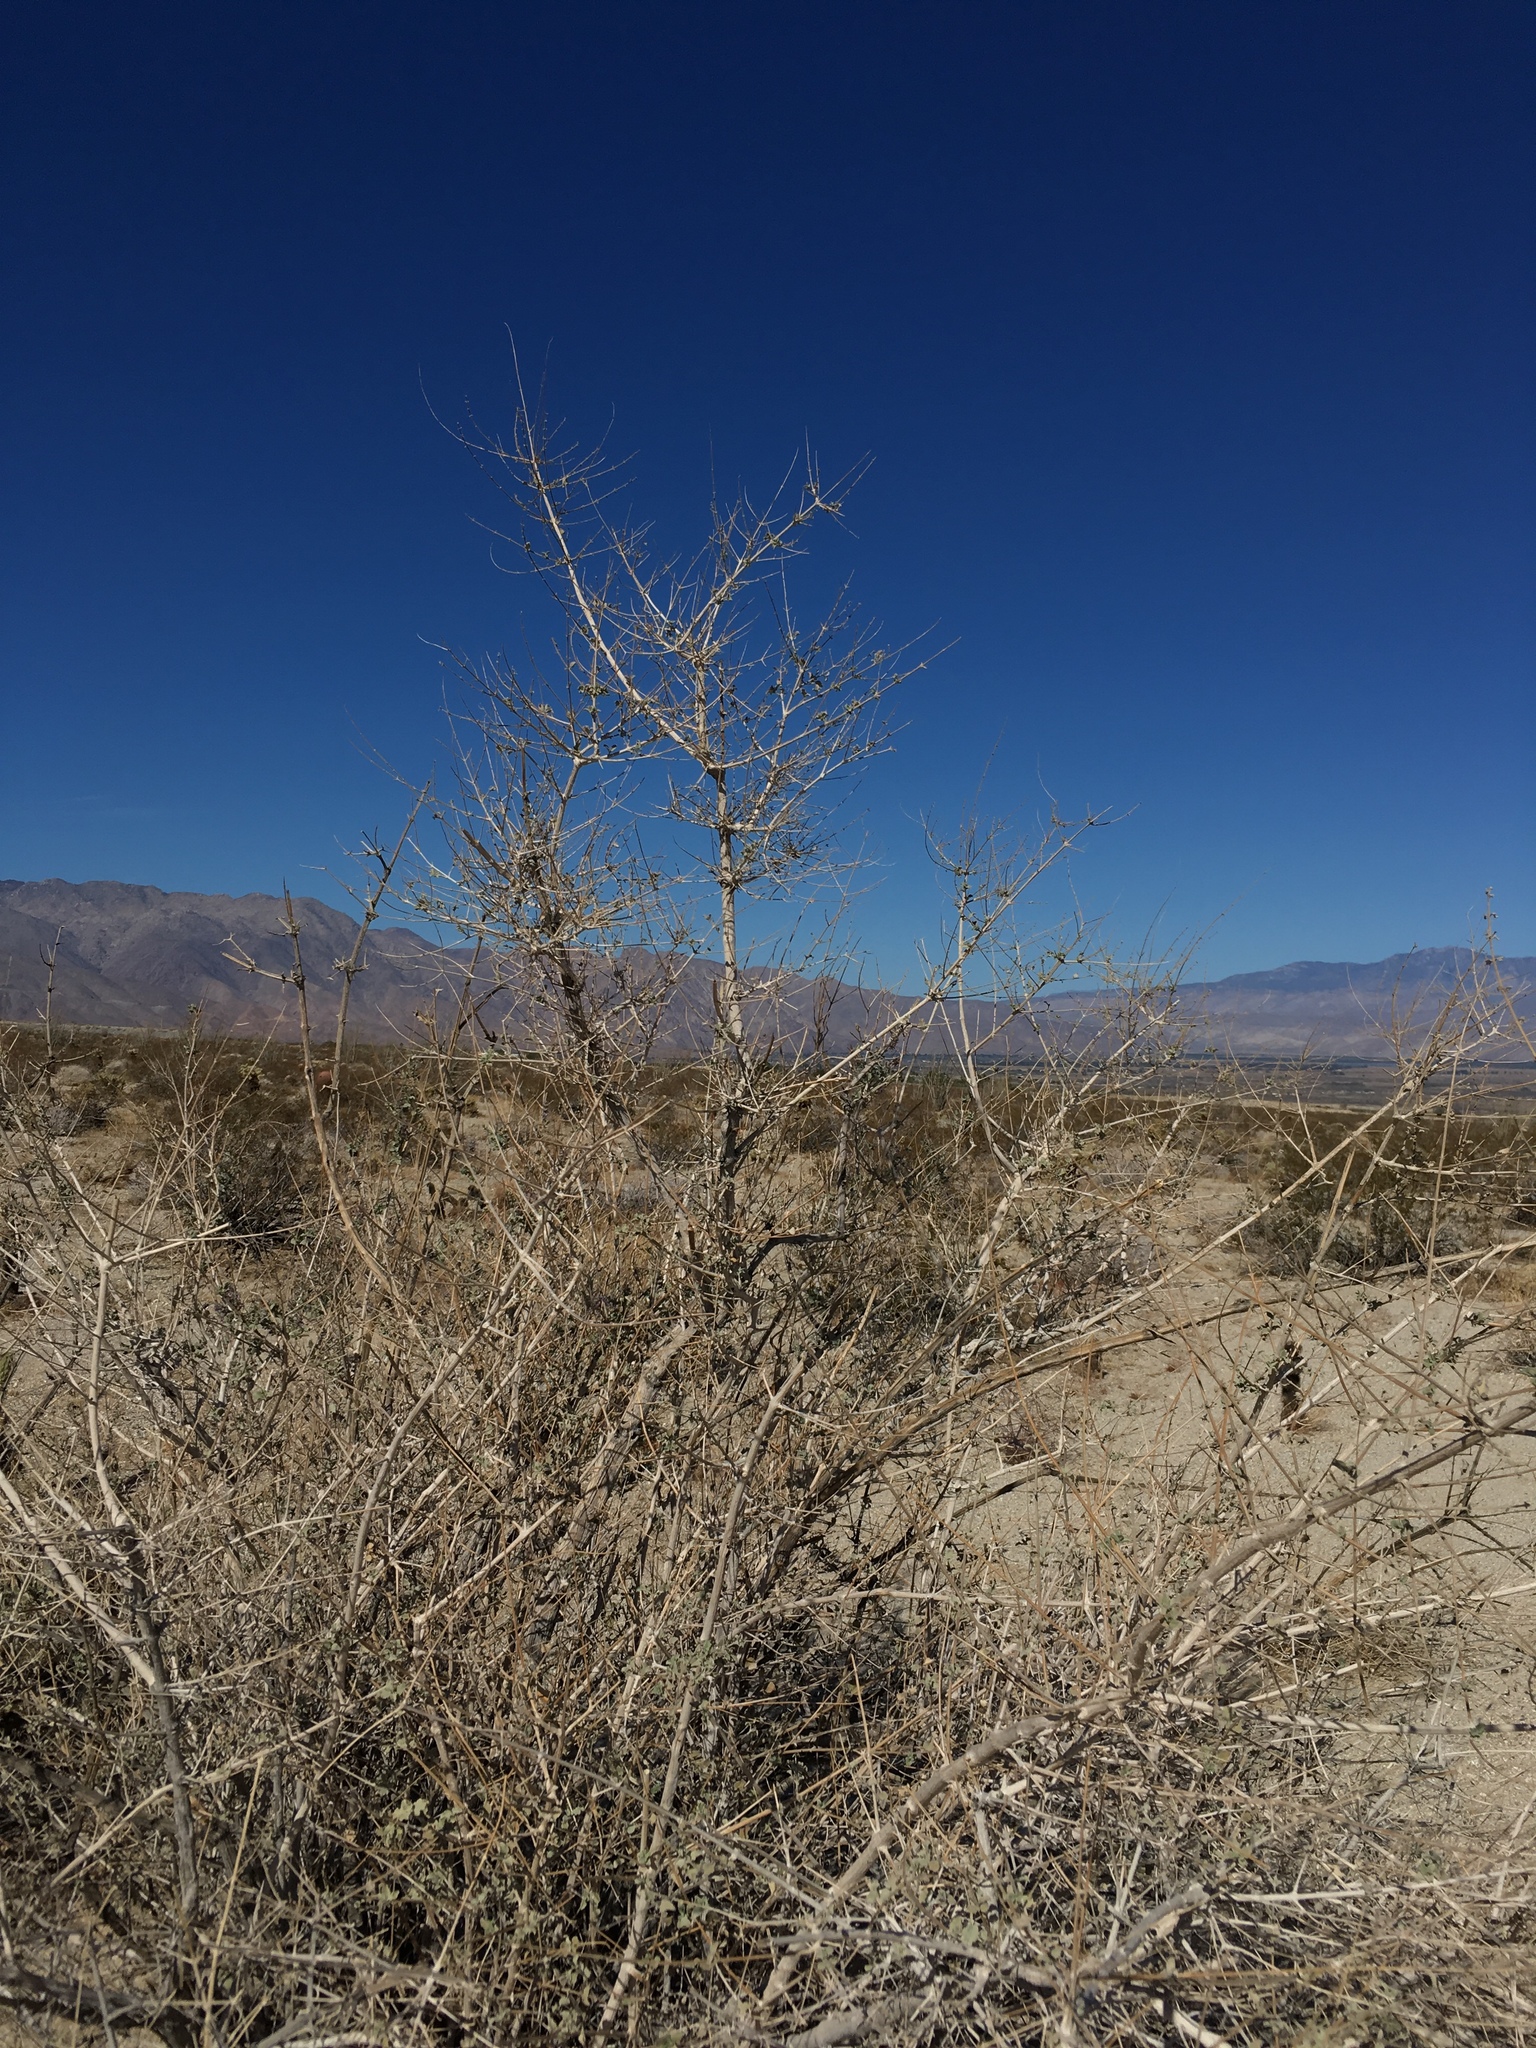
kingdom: Plantae
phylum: Tracheophyta
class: Magnoliopsida
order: Lamiales
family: Lamiaceae
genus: Condea
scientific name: Condea emoryi
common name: Chia
